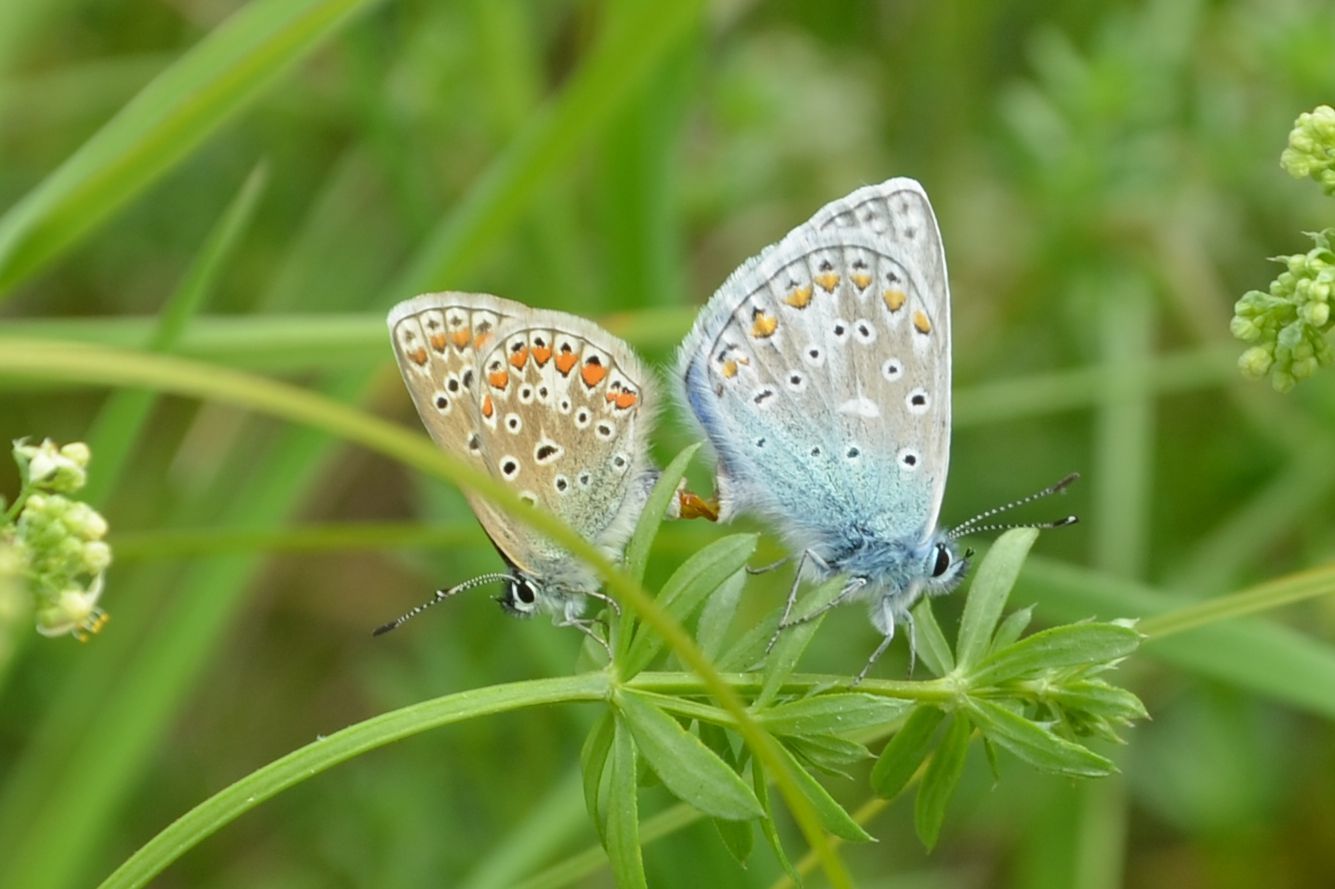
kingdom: Animalia
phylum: Arthropoda
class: Insecta
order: Lepidoptera
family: Lycaenidae
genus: Polyommatus
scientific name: Polyommatus icarus
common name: Common blue
